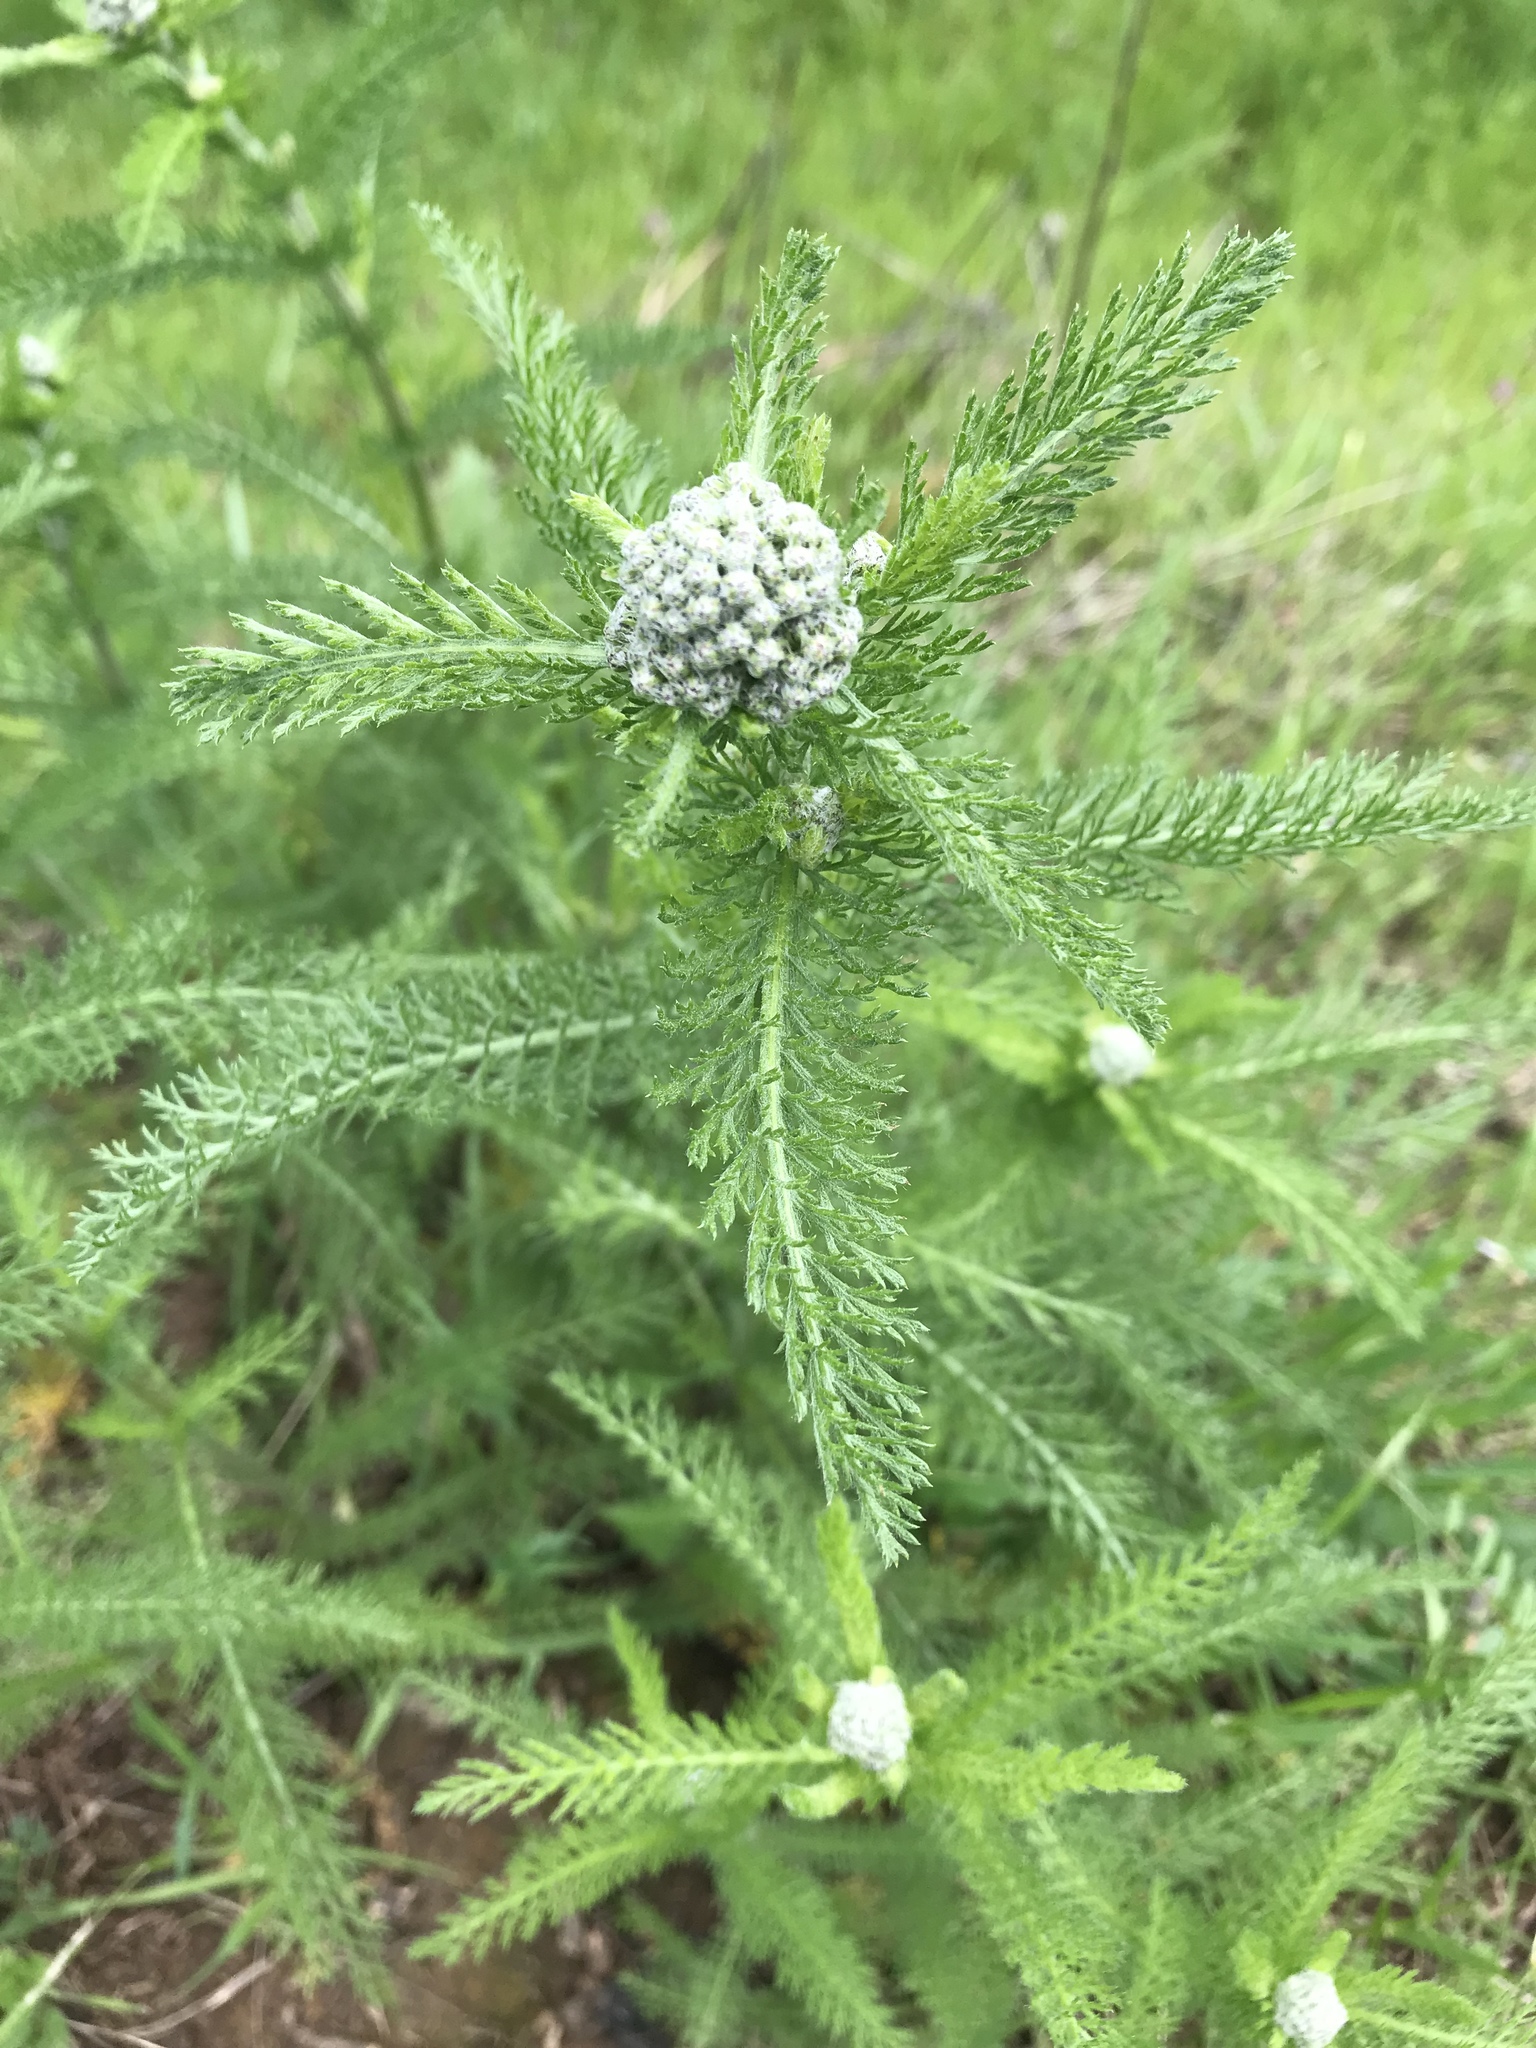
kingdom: Plantae
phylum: Tracheophyta
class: Magnoliopsida
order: Asterales
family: Asteraceae
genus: Achillea
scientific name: Achillea millefolium
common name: Yarrow
